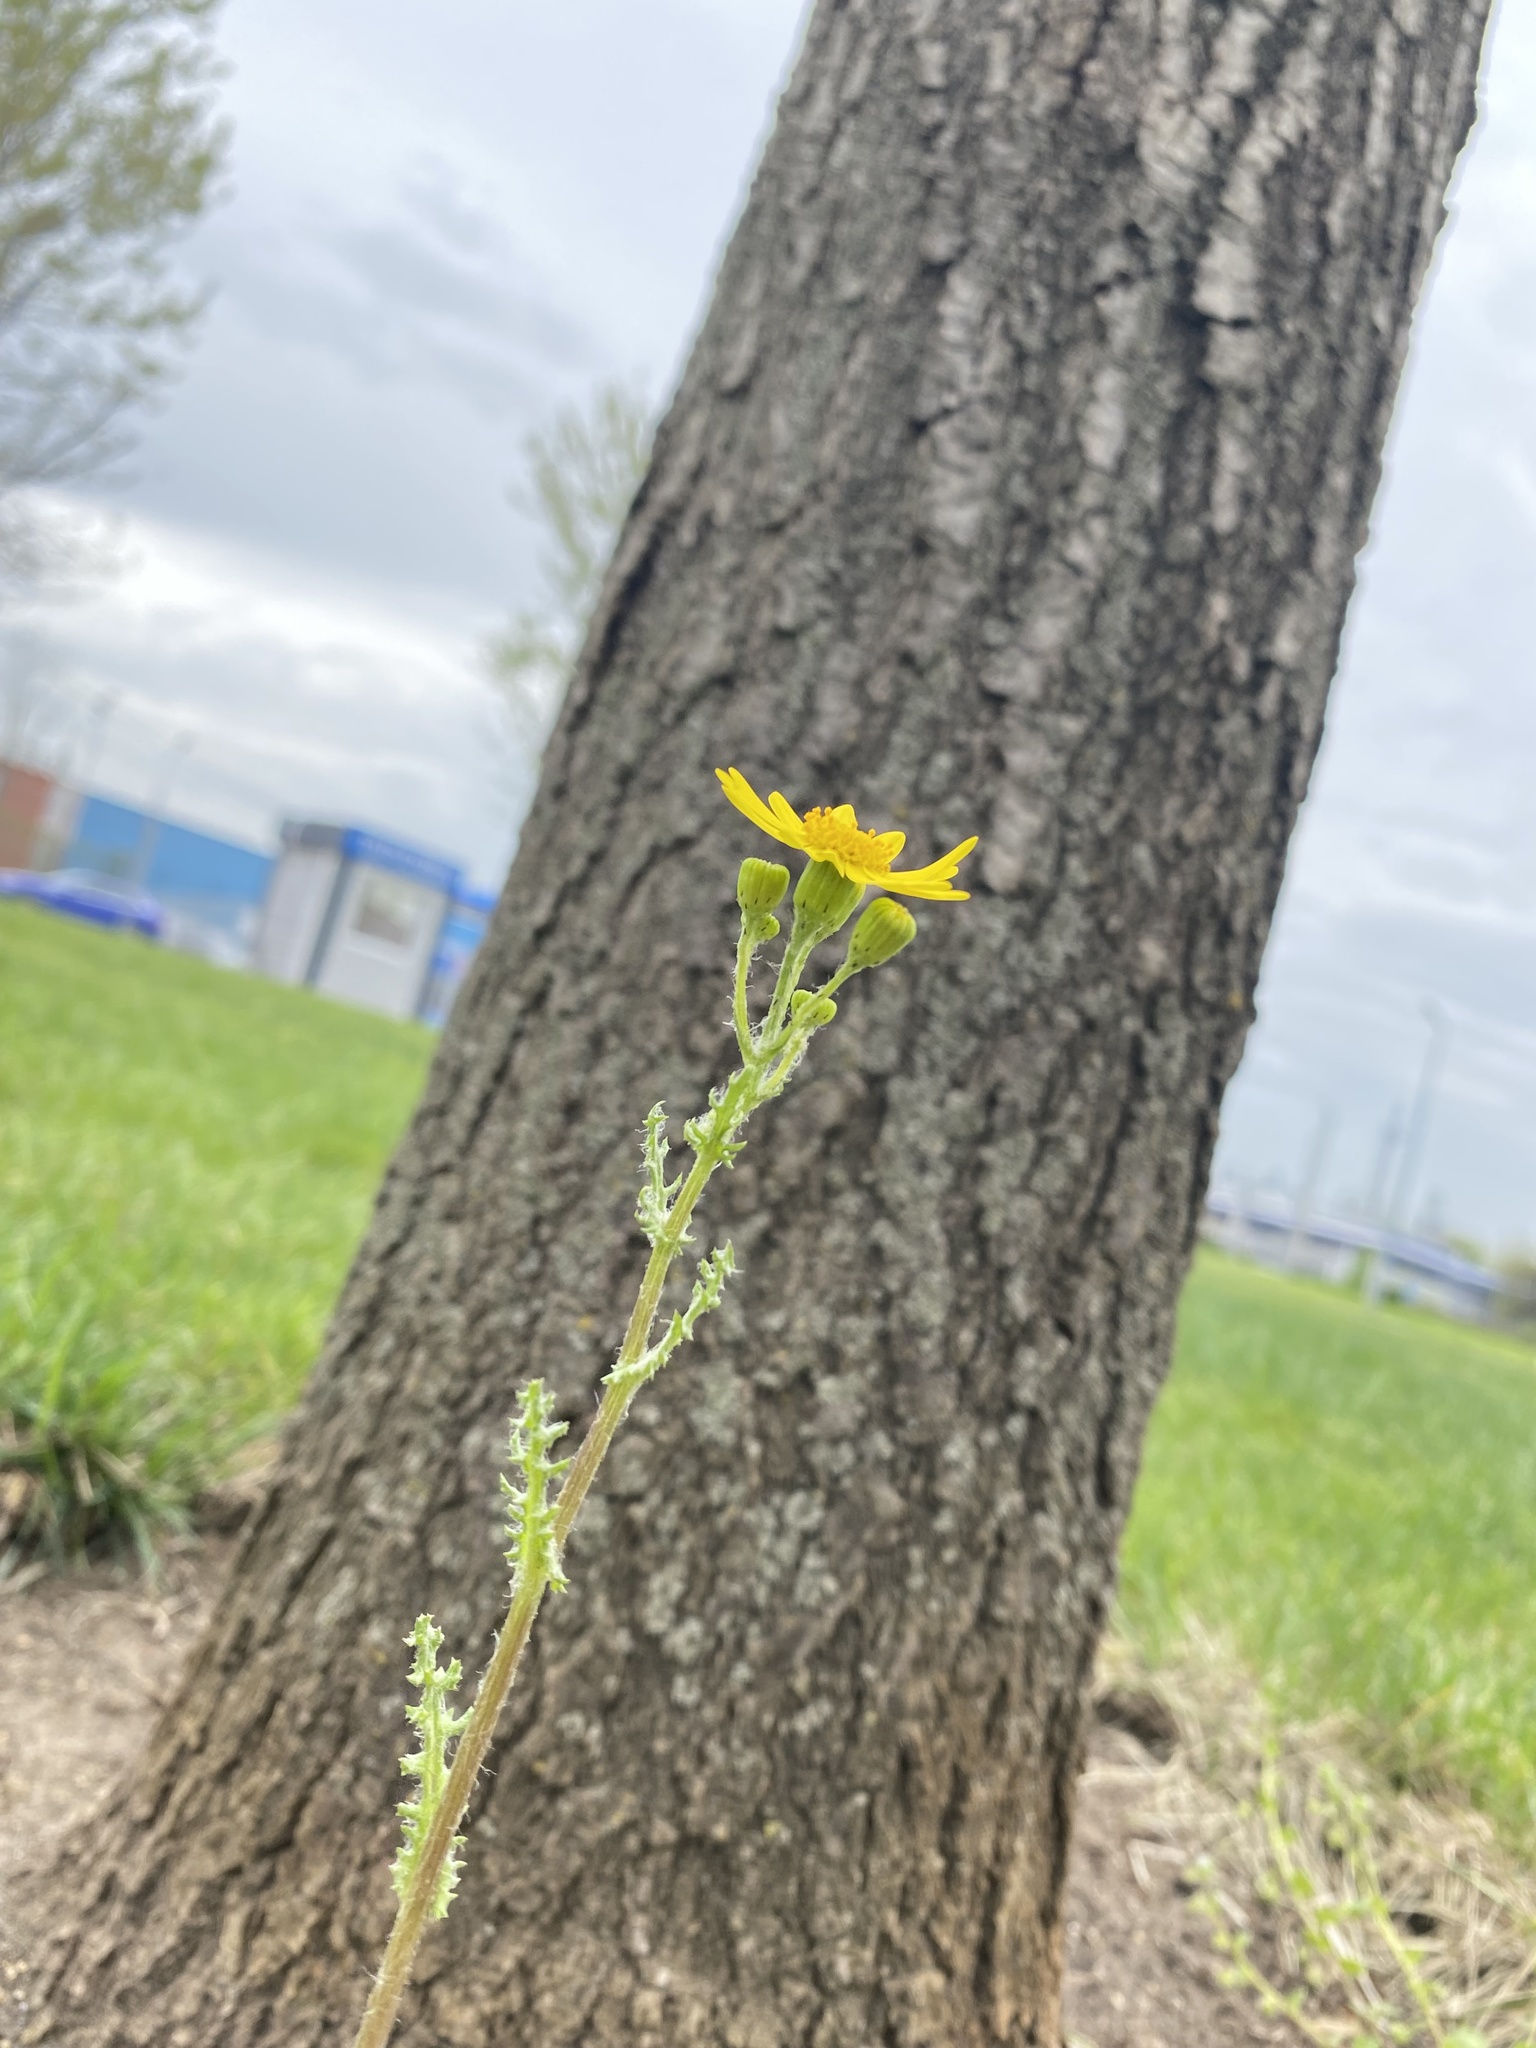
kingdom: Plantae
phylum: Tracheophyta
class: Magnoliopsida
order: Asterales
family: Asteraceae
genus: Senecio
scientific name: Senecio vernalis
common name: Eastern groundsel
